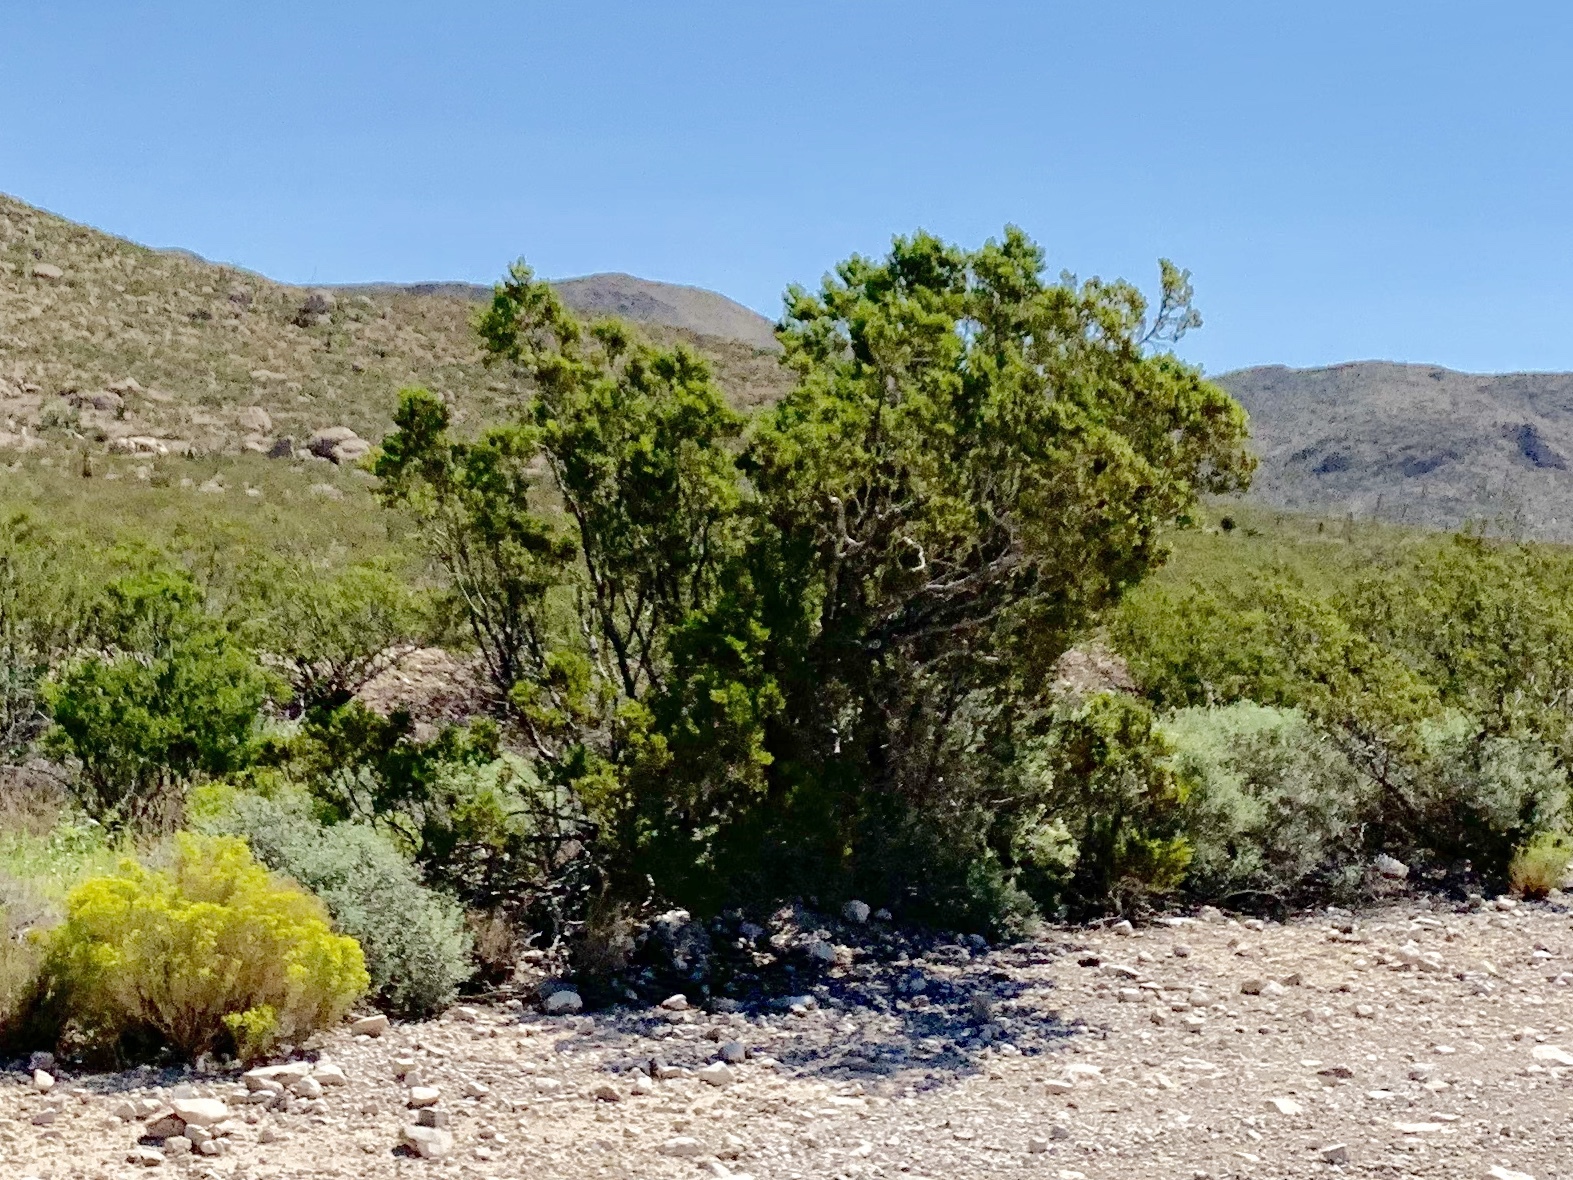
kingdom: Plantae
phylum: Tracheophyta
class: Magnoliopsida
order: Zygophyllales
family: Zygophyllaceae
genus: Larrea
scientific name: Larrea tridentata
